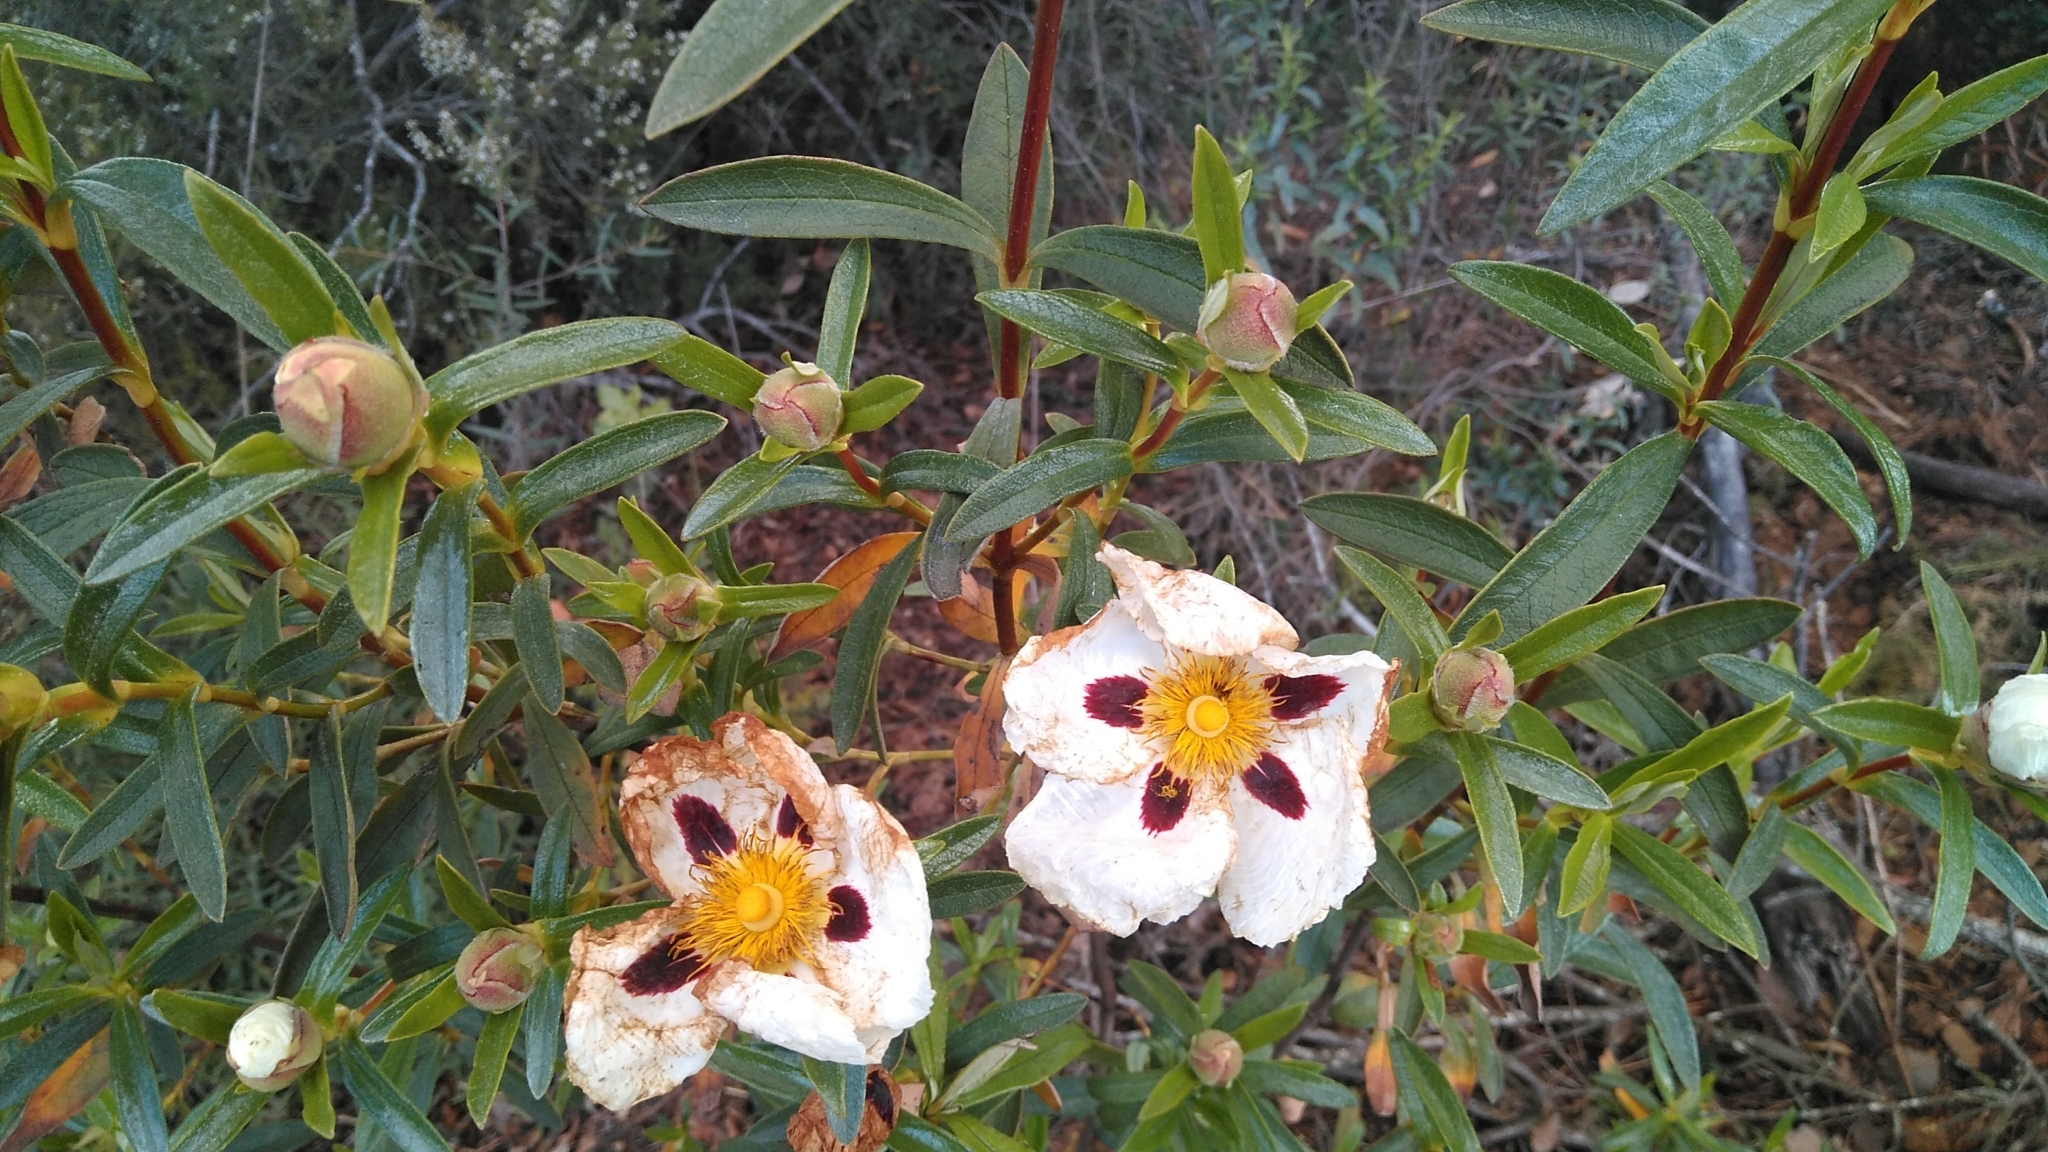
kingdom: Plantae
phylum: Tracheophyta
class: Magnoliopsida
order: Malvales
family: Cistaceae
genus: Cistus
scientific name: Cistus ladanifer
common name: Common gum cistus
